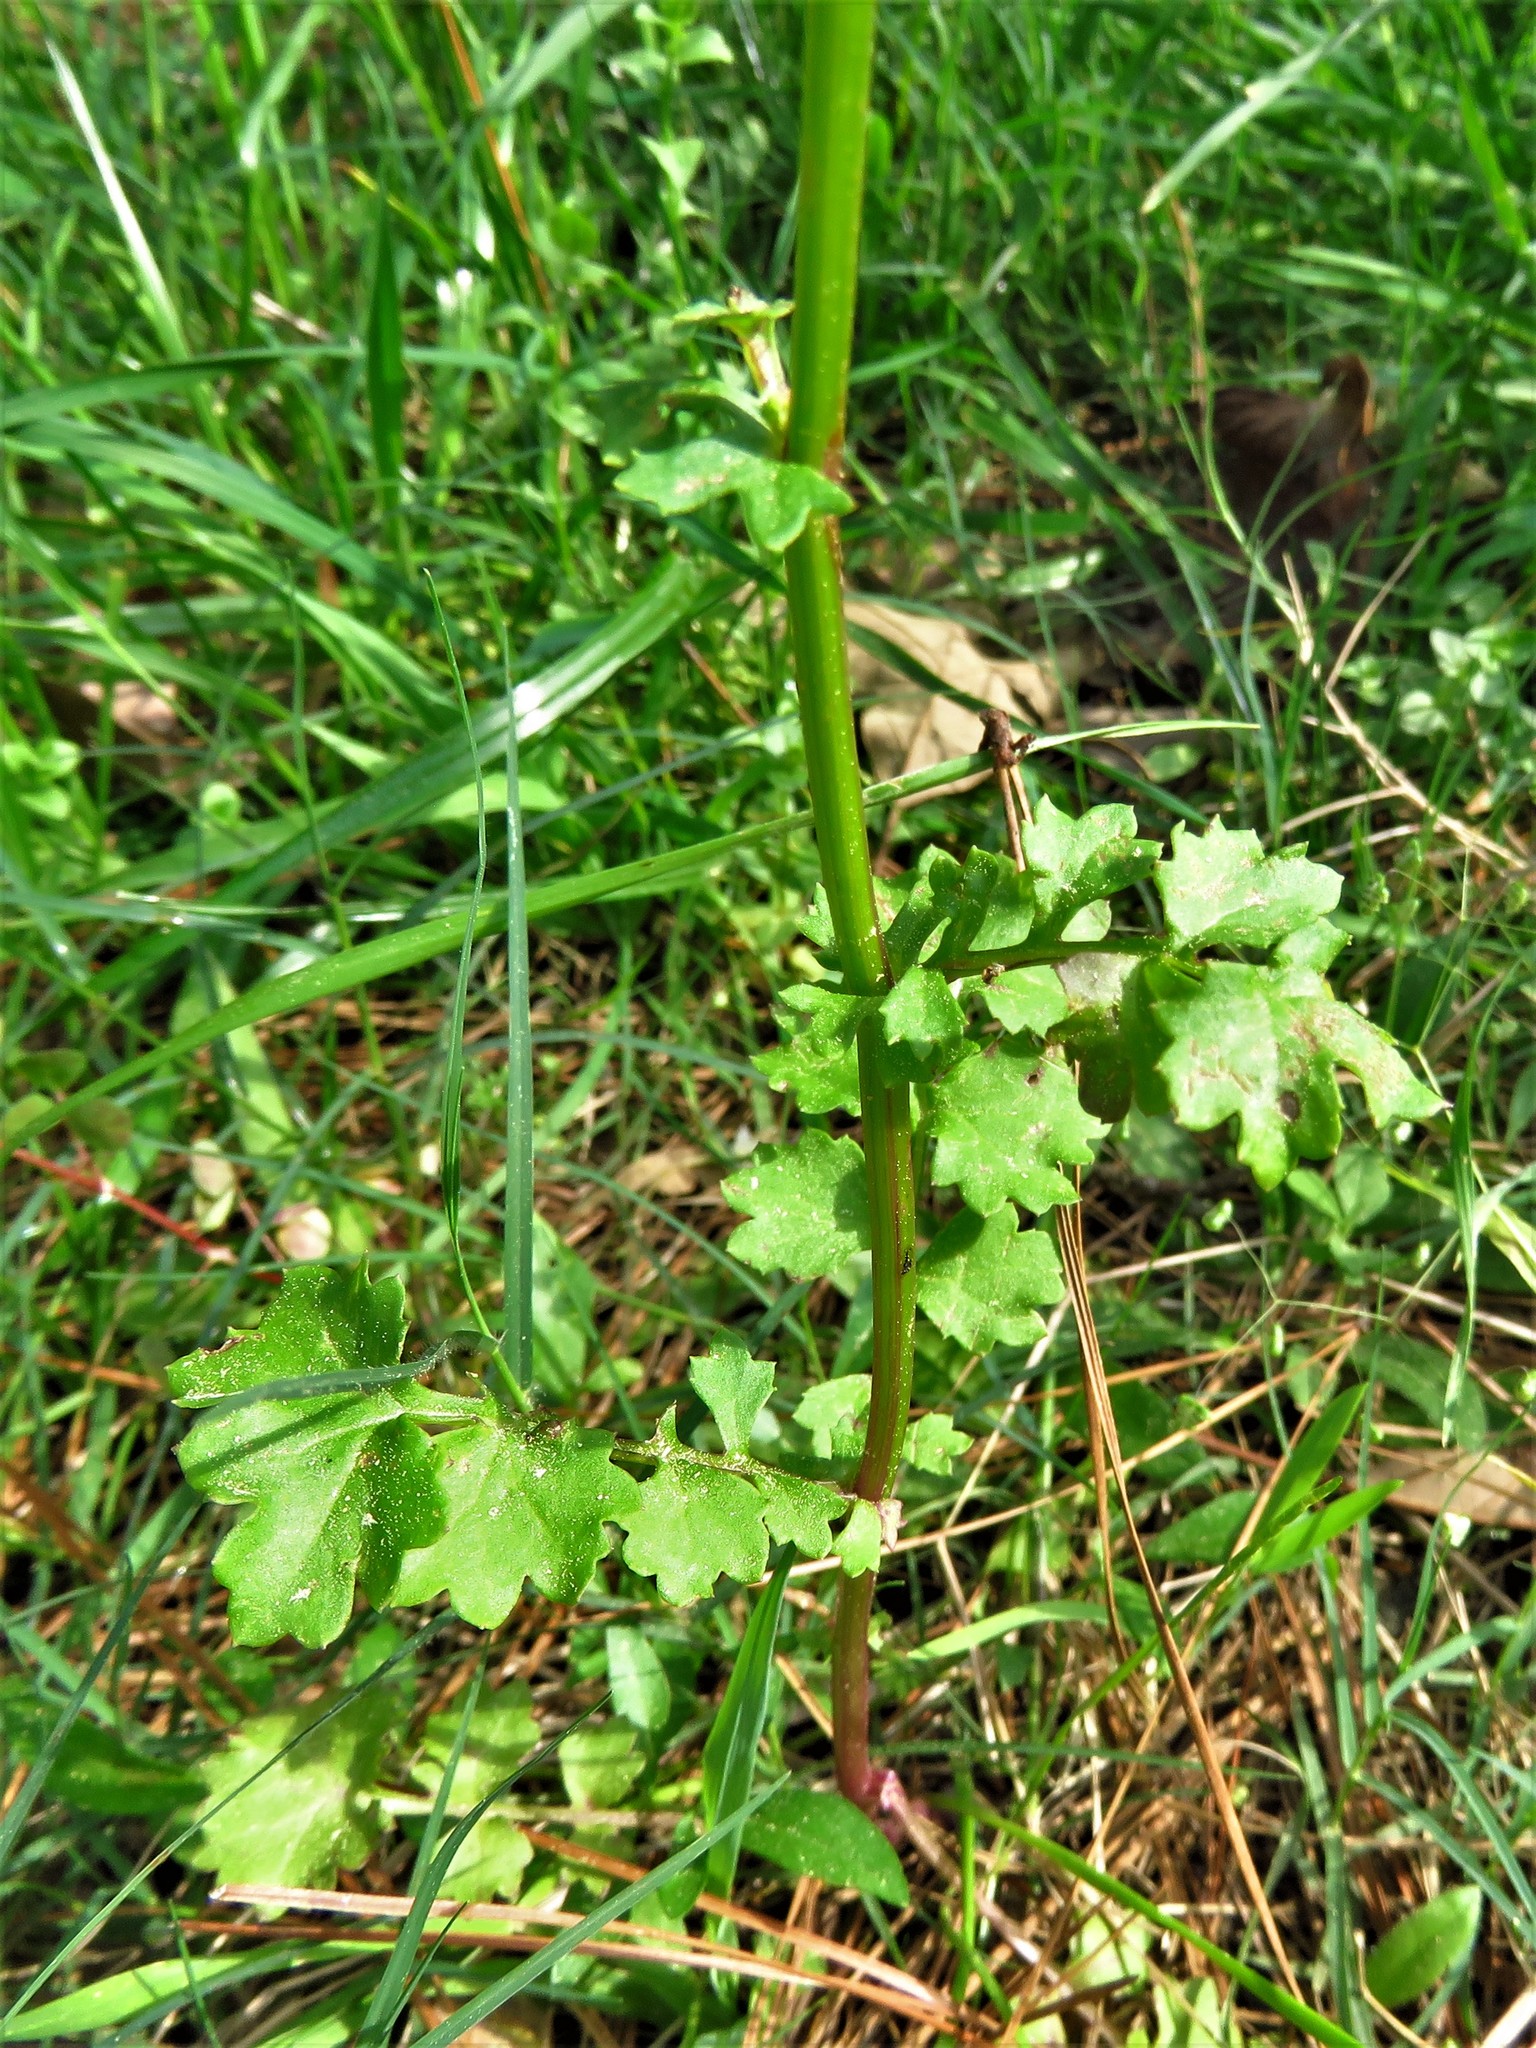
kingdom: Plantae
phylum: Tracheophyta
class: Magnoliopsida
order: Asterales
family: Asteraceae
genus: Packera
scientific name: Packera glabella
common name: Butterweed
